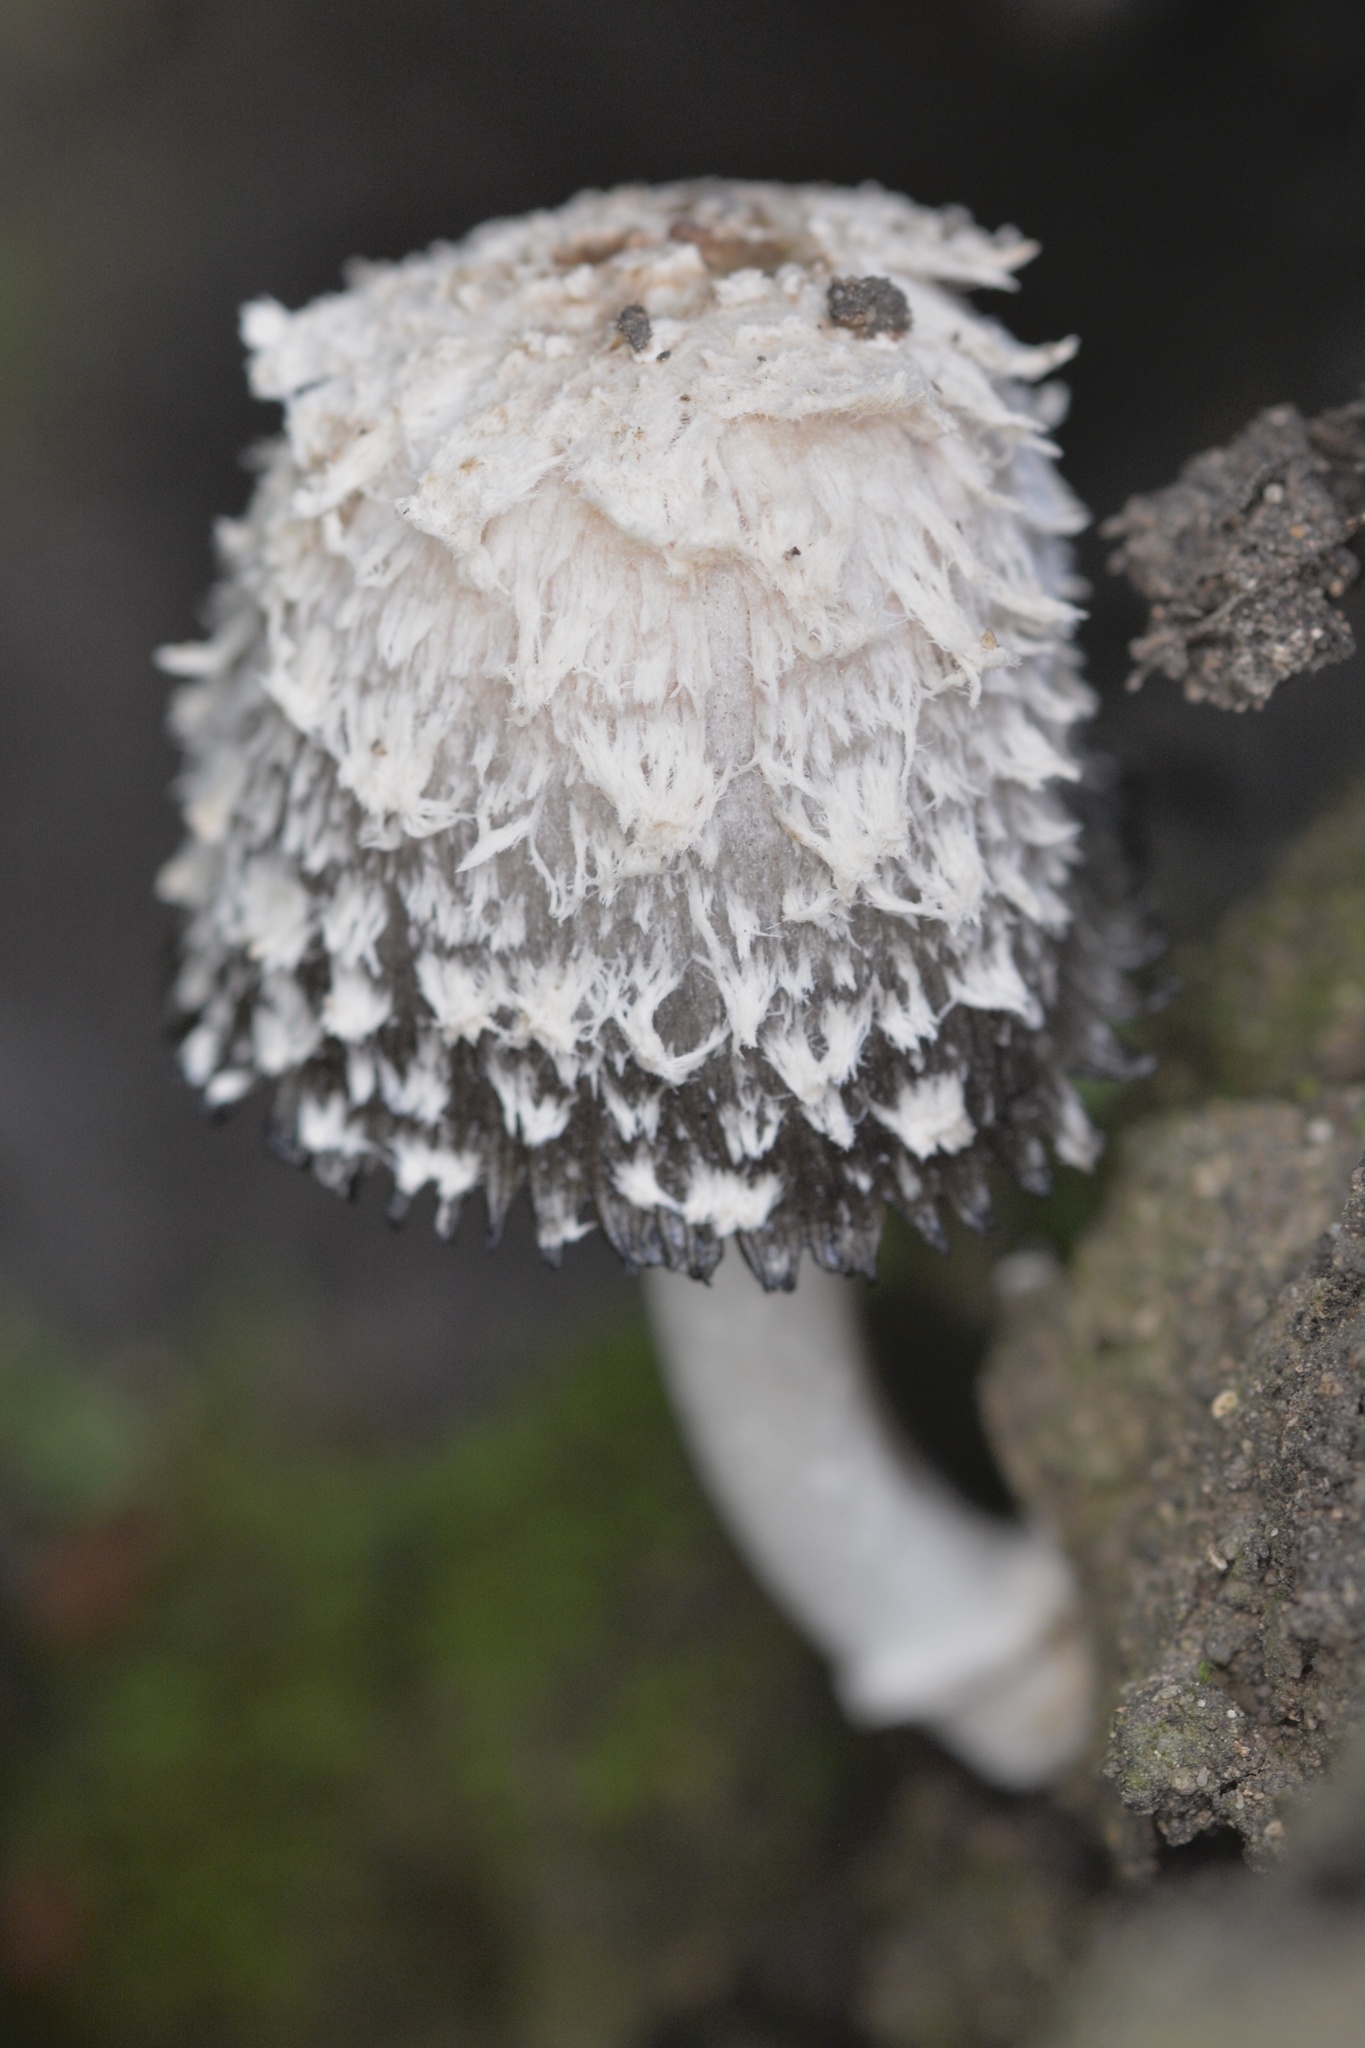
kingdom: Fungi
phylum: Basidiomycota
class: Agaricomycetes
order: Agaricales
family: Agaricaceae
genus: Coprinus
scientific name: Coprinus comatus
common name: Lawyer's wig
